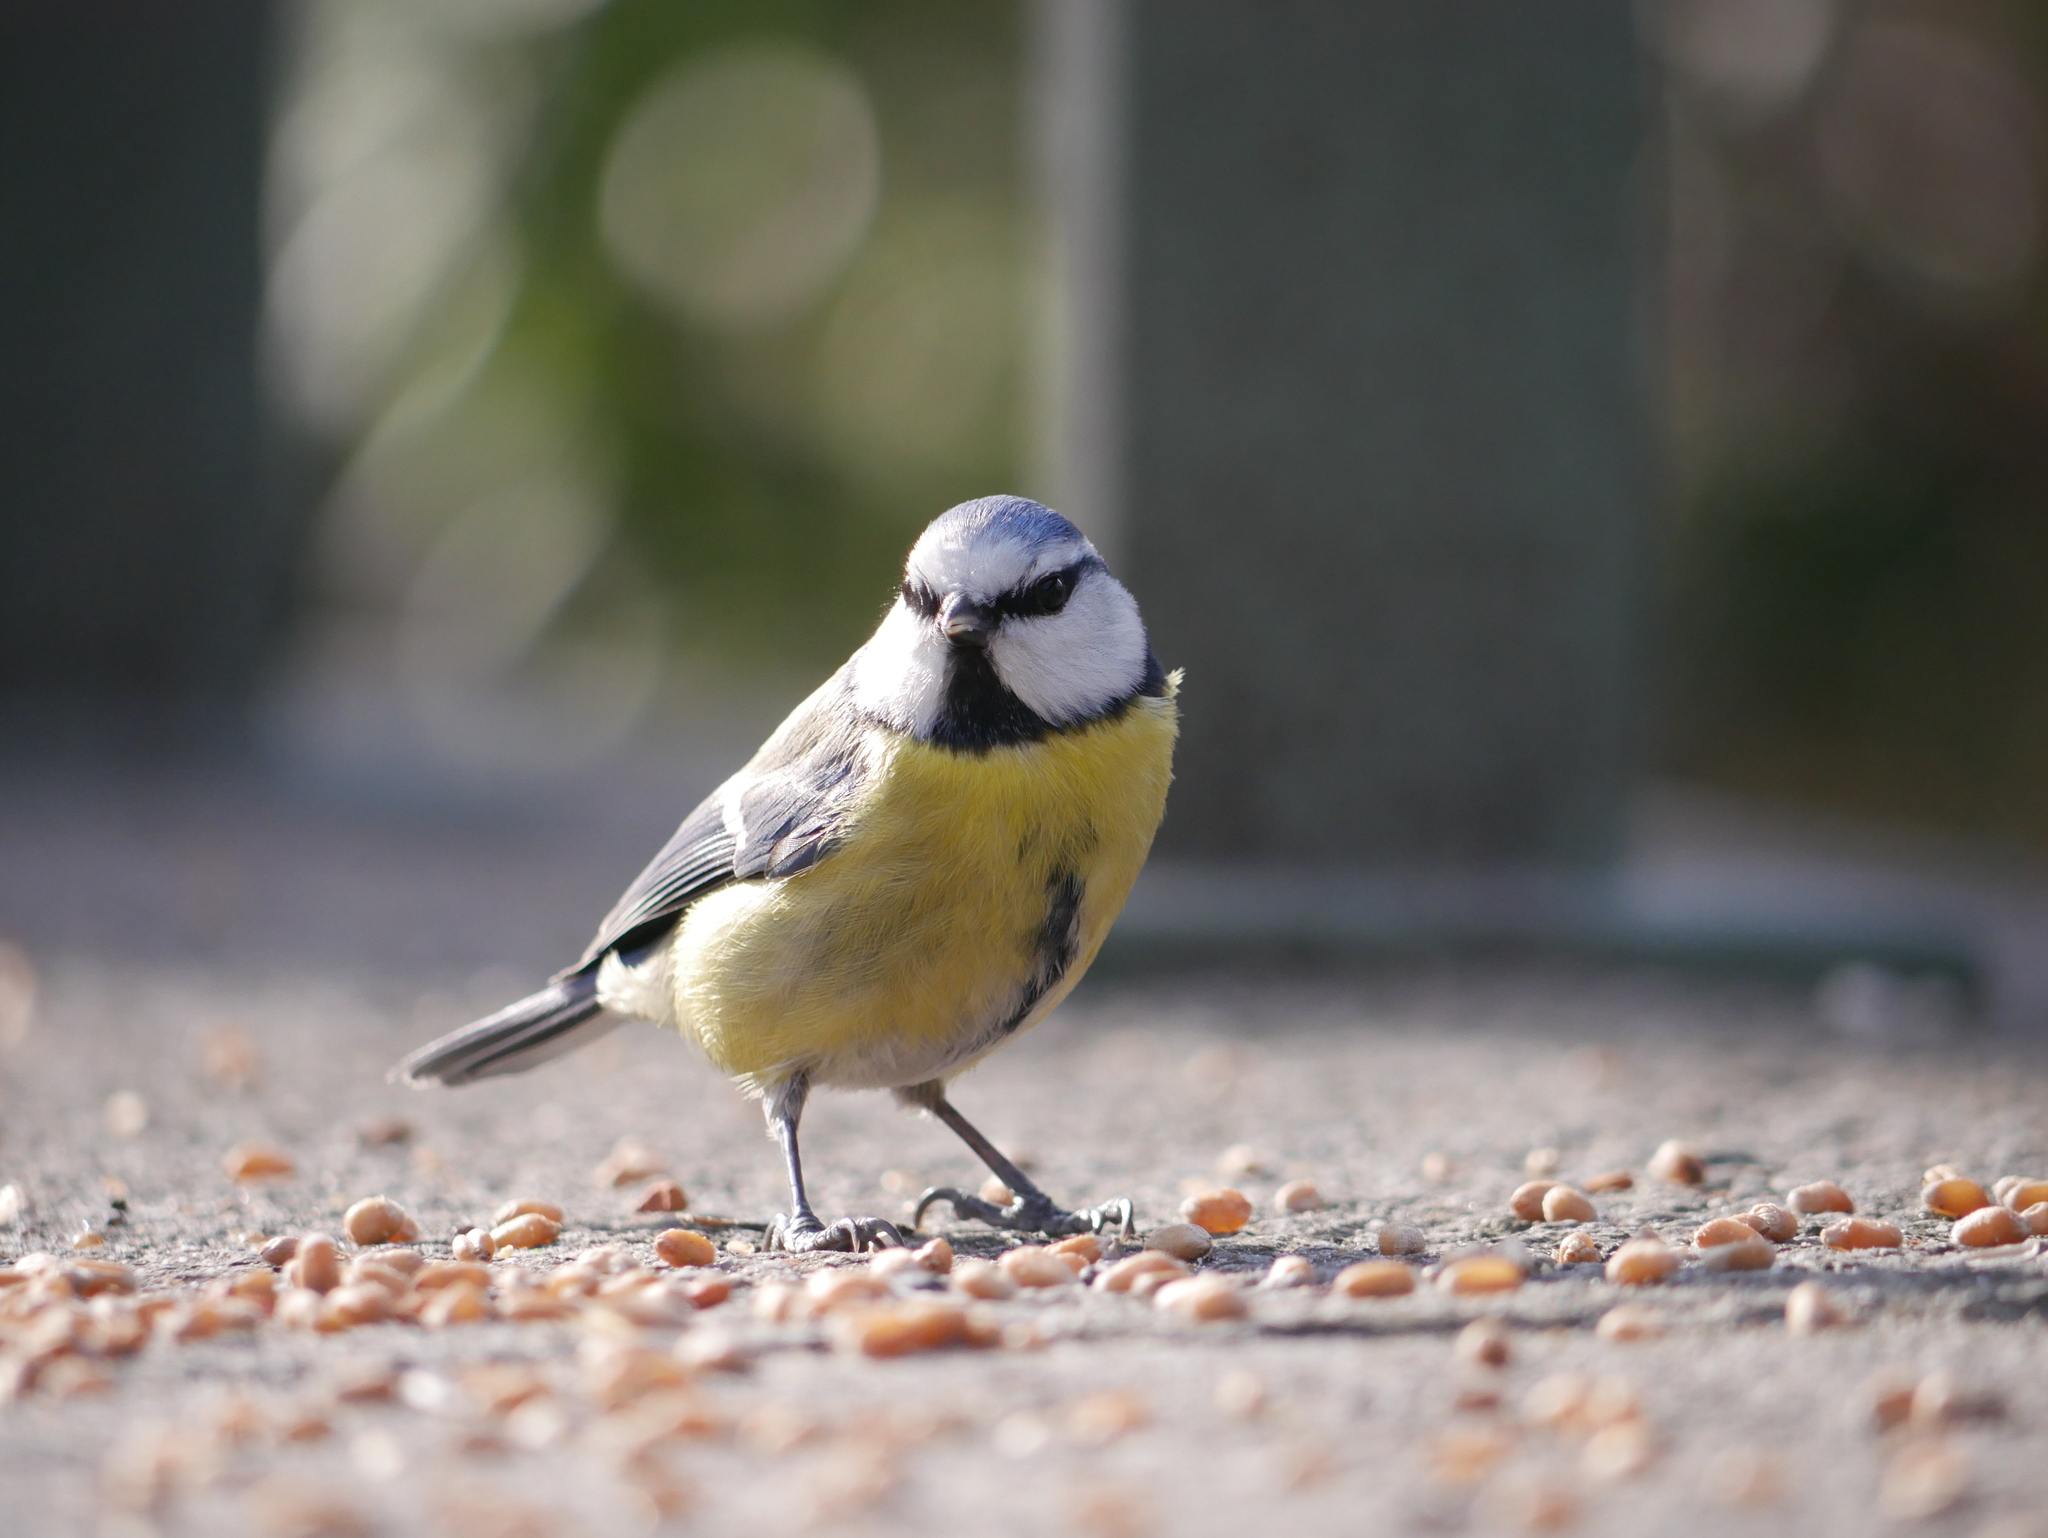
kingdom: Animalia
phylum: Chordata
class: Aves
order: Passeriformes
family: Paridae
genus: Cyanistes
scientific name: Cyanistes caeruleus
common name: Eurasian blue tit
